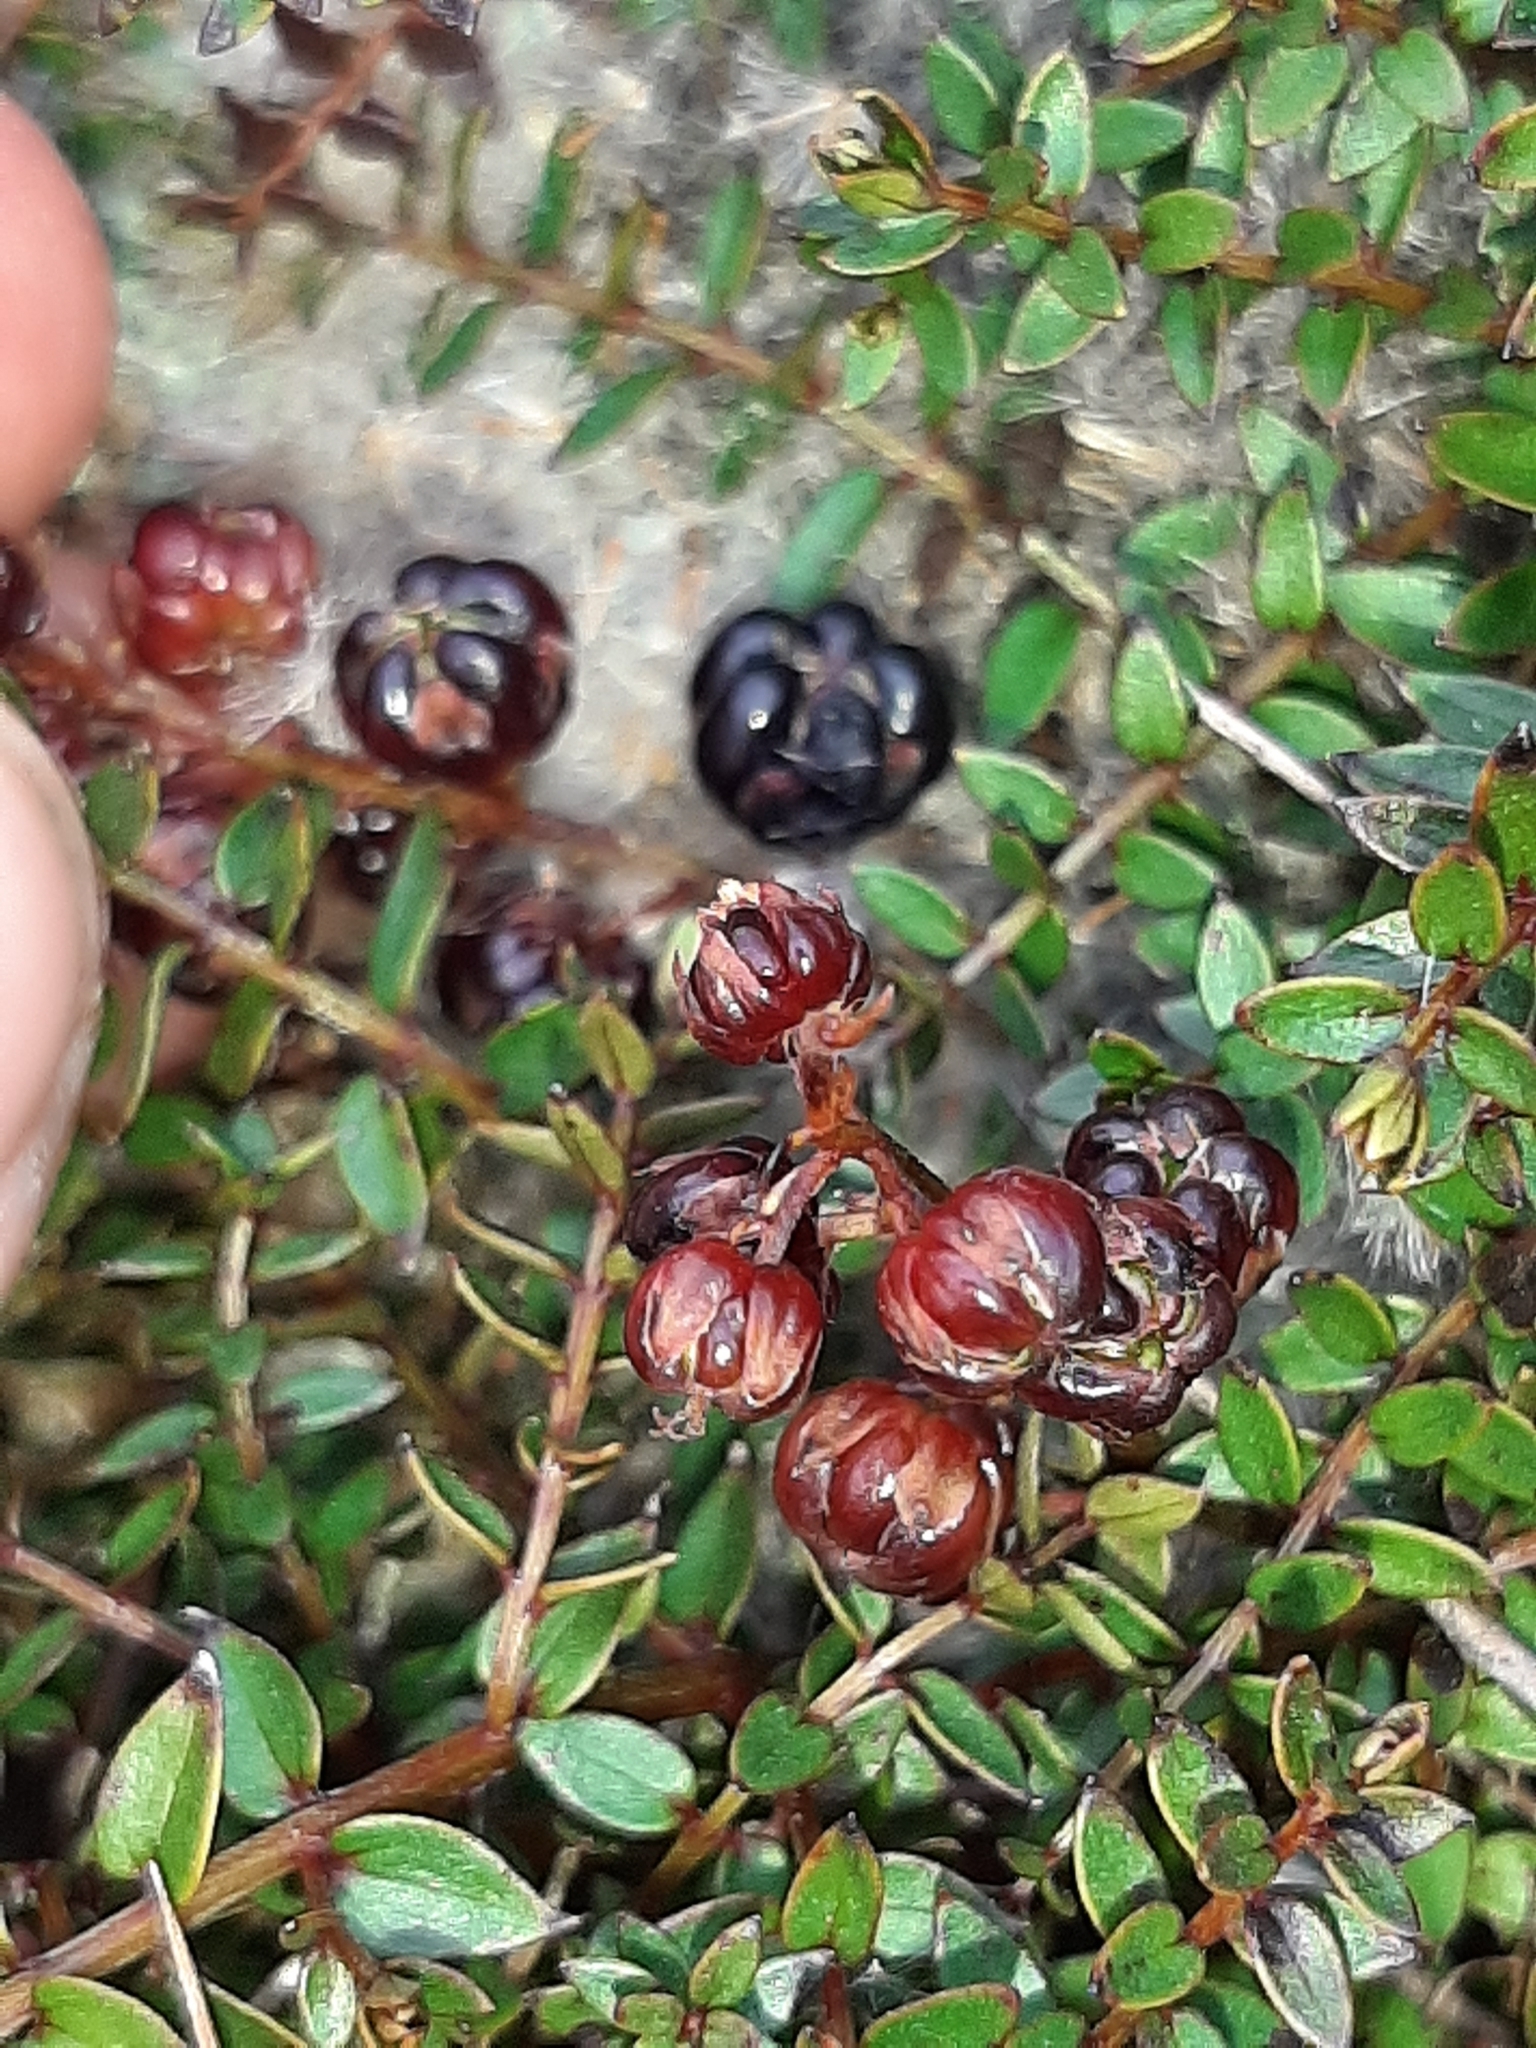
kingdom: Plantae
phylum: Tracheophyta
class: Magnoliopsida
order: Cucurbitales
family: Coriariaceae
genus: Coriaria
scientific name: Coriaria plumosa
